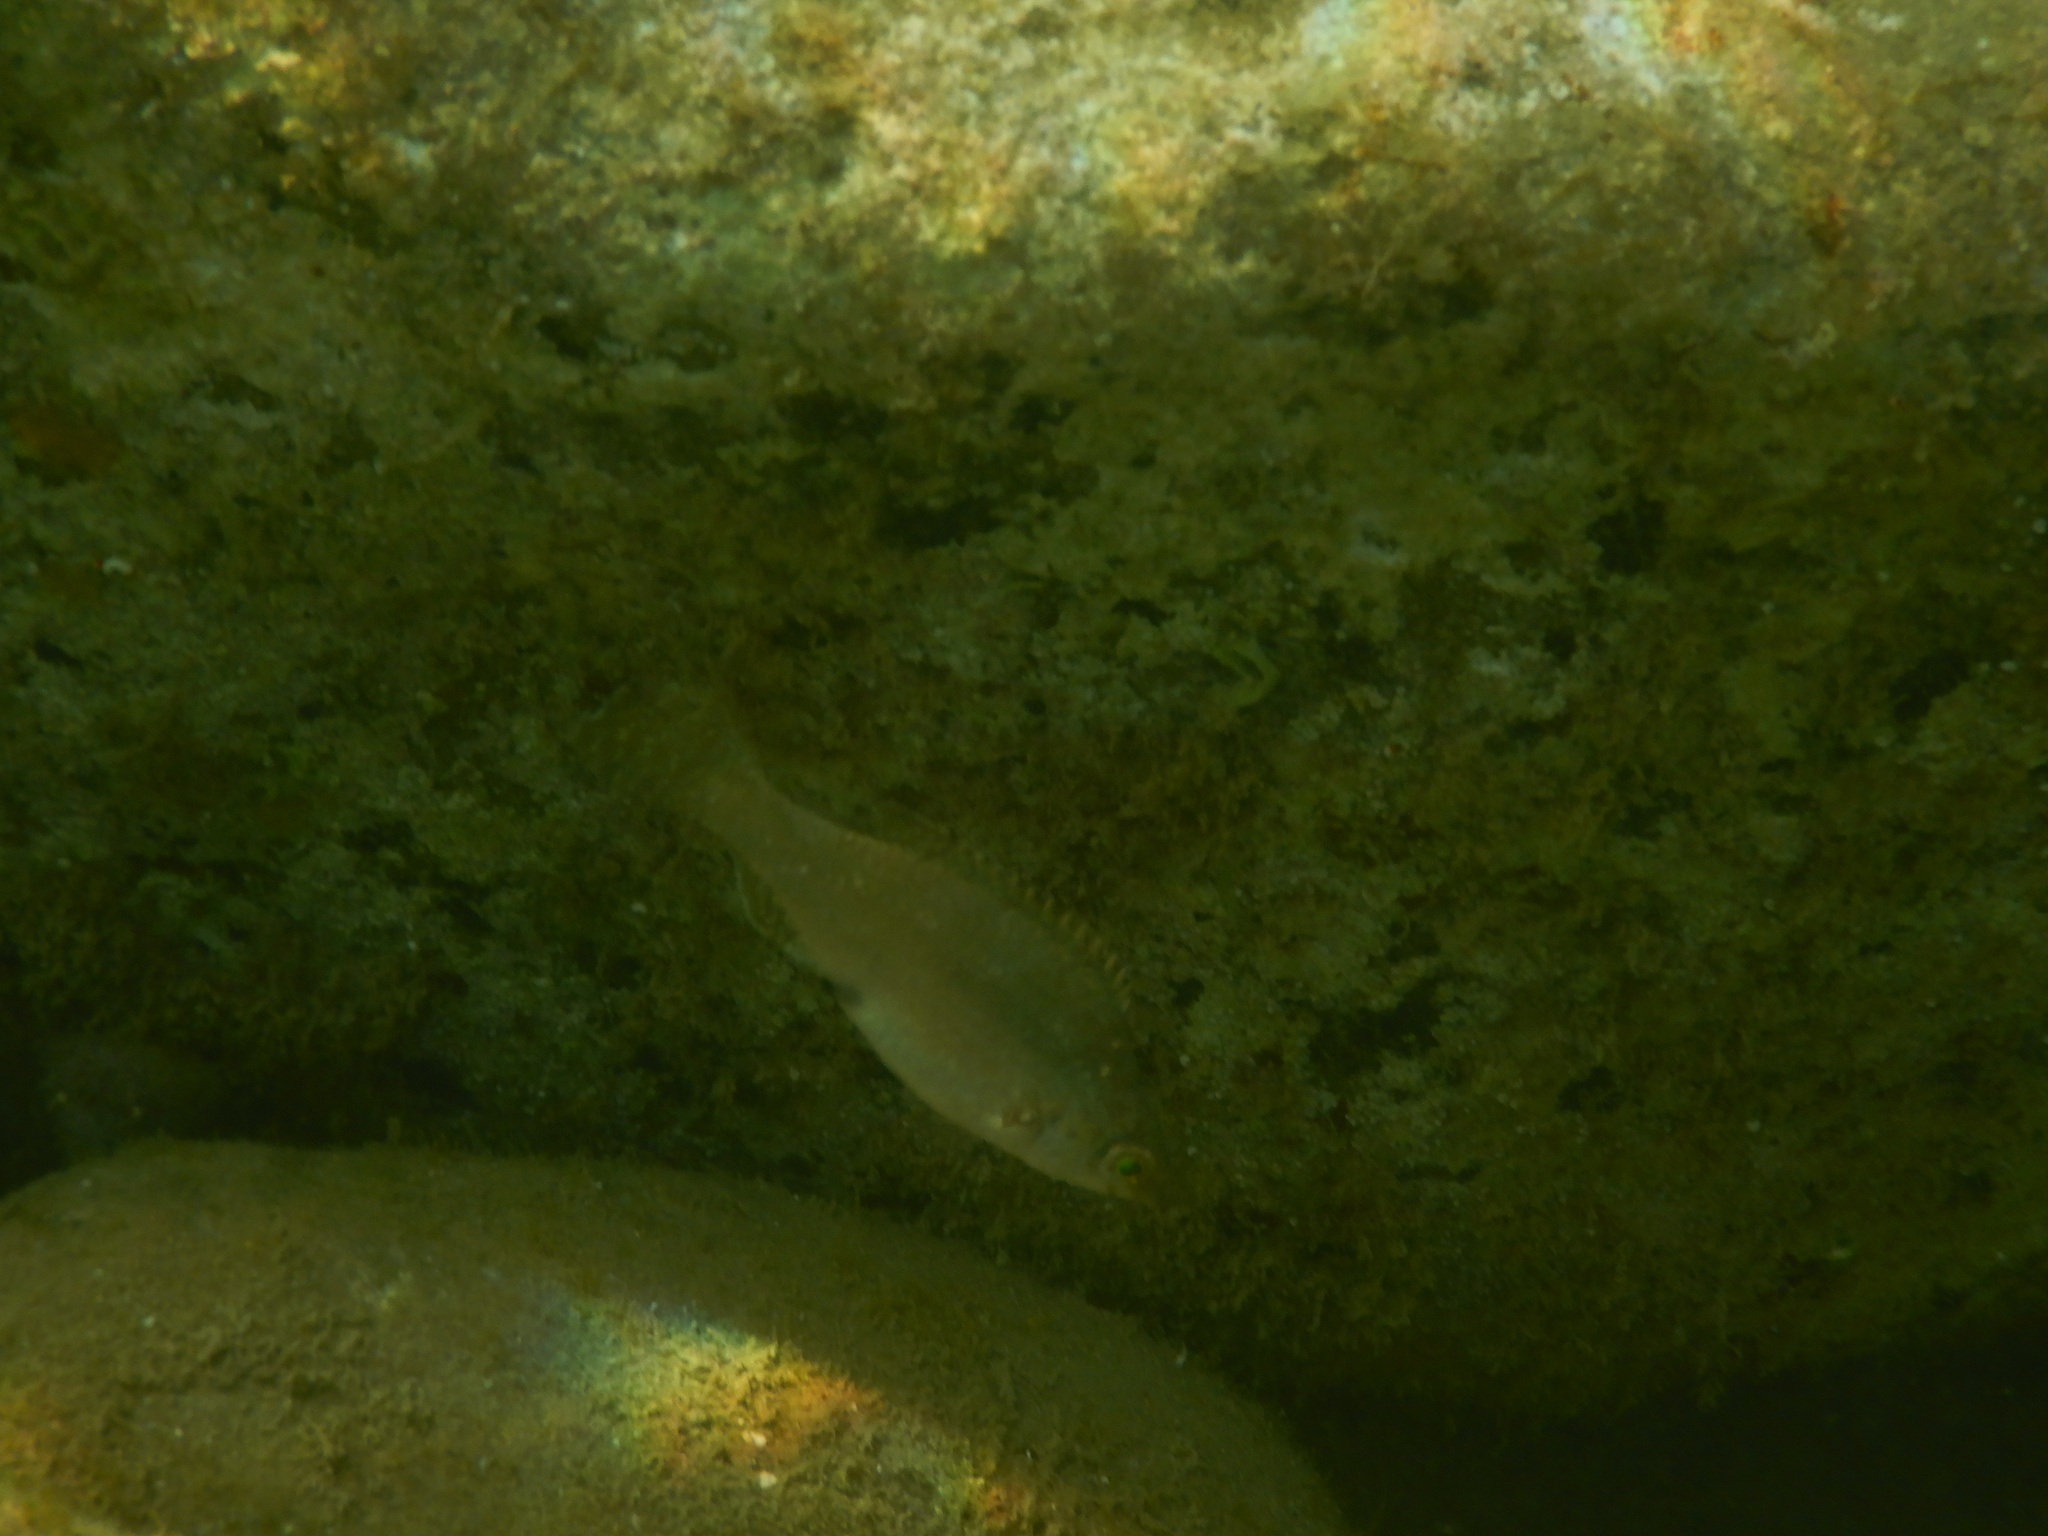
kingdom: Animalia
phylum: Chordata
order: Perciformes
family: Labridae
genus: Symphodus
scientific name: Symphodus cinereus
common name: Grey wrasse
